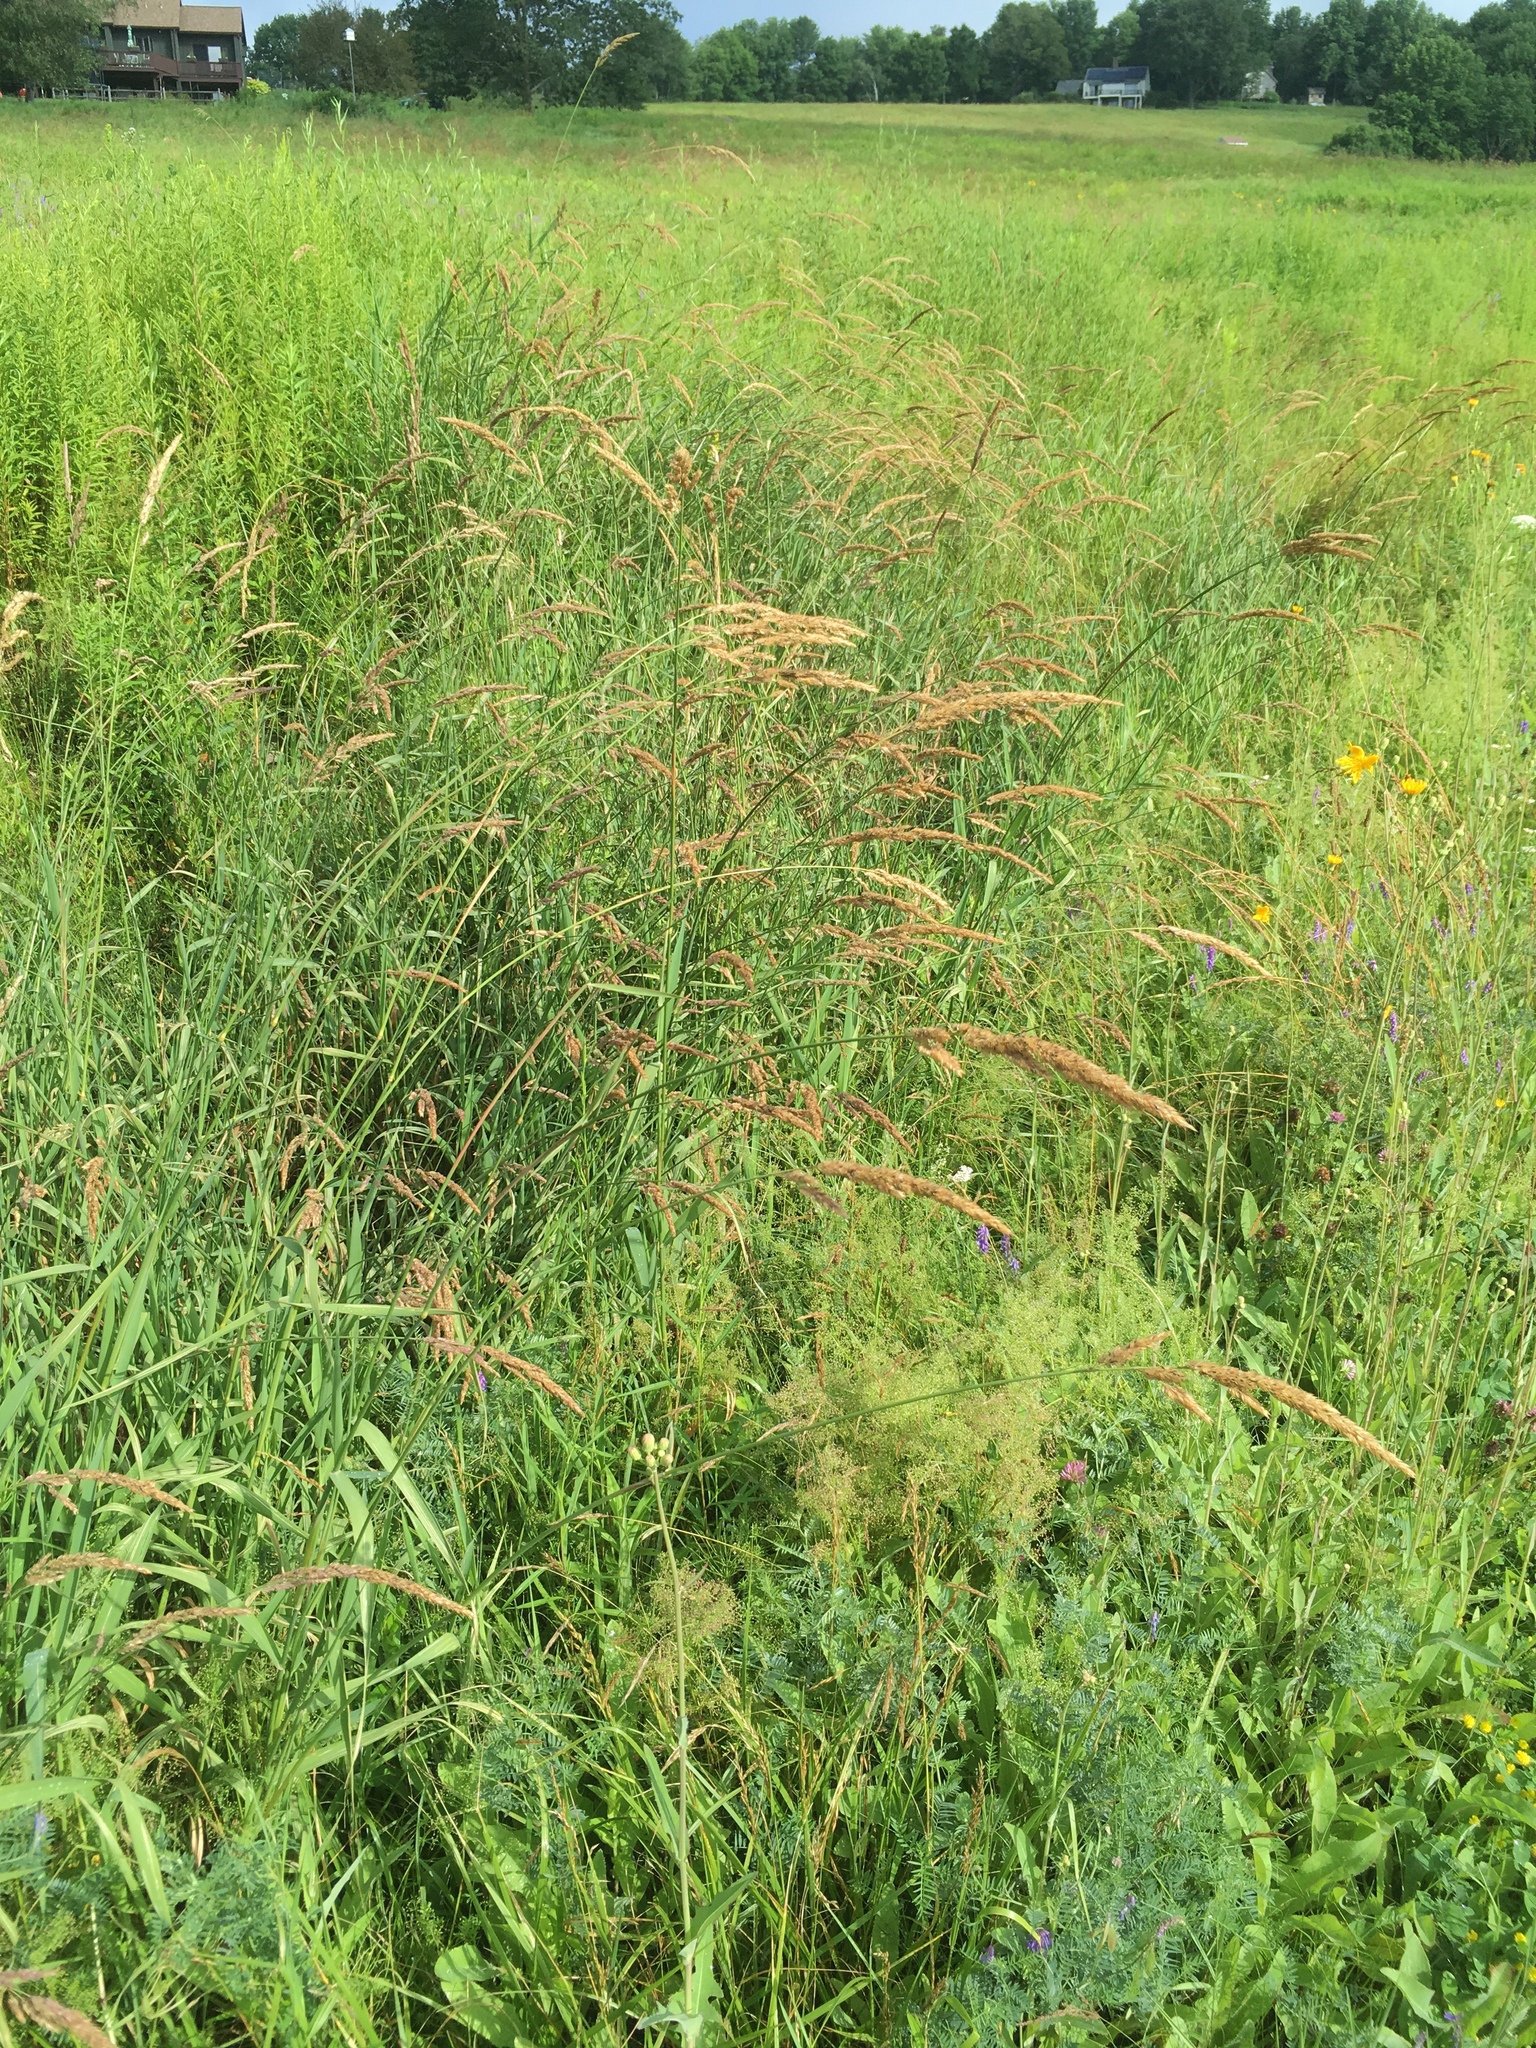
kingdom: Plantae
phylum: Tracheophyta
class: Liliopsida
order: Poales
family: Poaceae
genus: Phalaris
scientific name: Phalaris arundinacea
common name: Reed canary-grass
